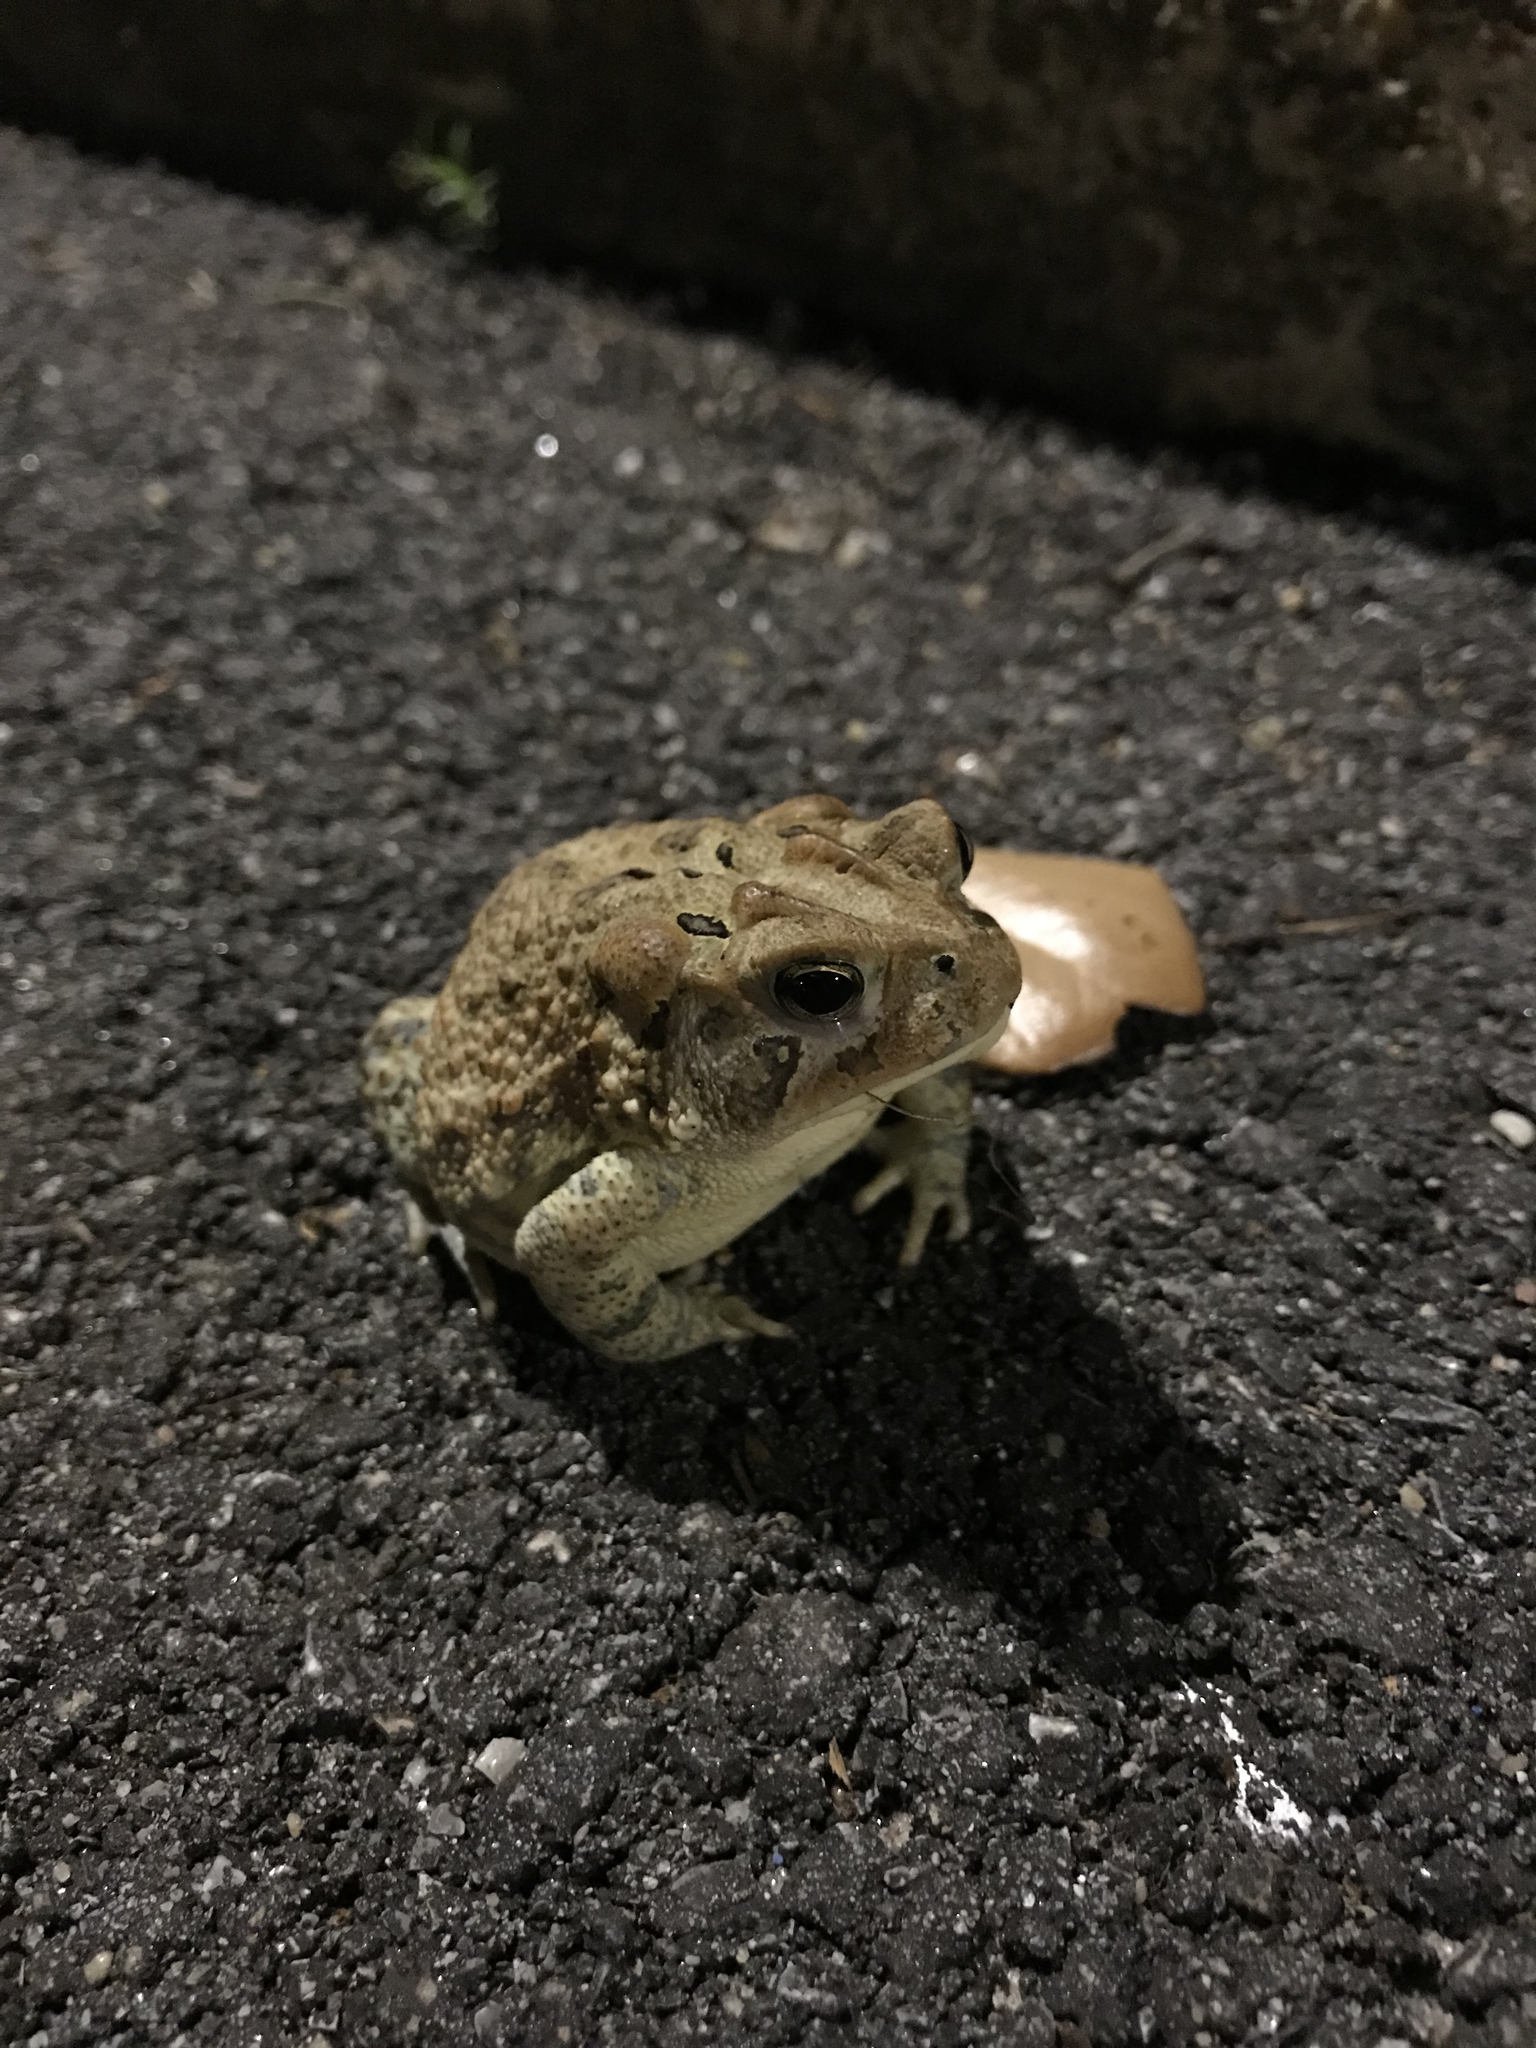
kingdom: Animalia
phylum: Chordata
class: Amphibia
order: Anura
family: Bufonidae
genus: Anaxyrus
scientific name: Anaxyrus terrestris
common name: Southern toad
